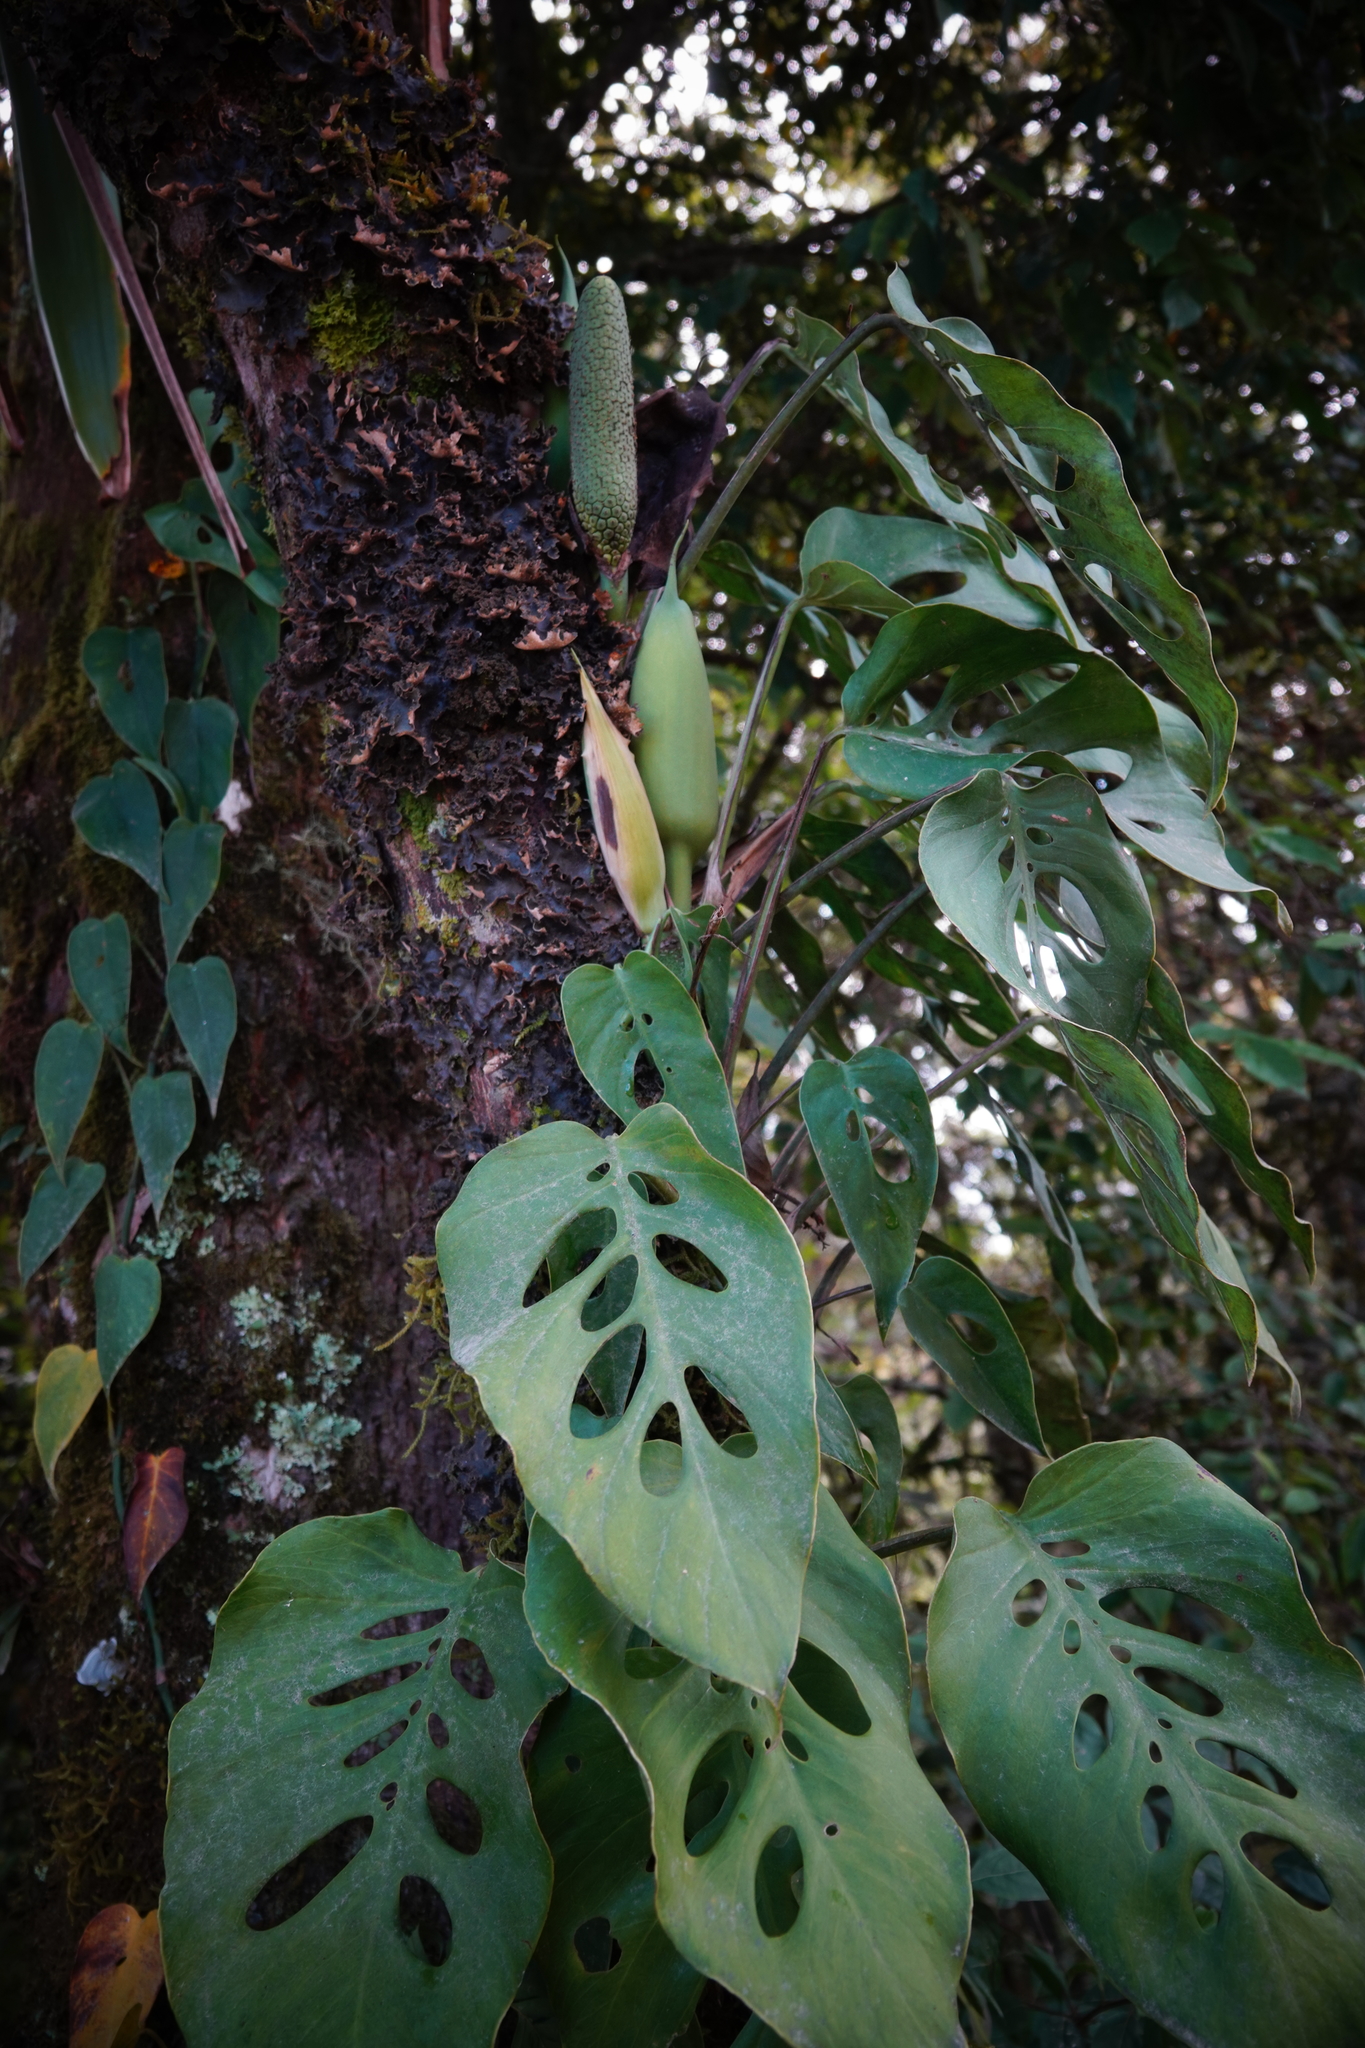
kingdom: Plantae
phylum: Tracheophyta
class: Liliopsida
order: Alismatales
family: Araceae
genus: Monstera
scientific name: Monstera siltepecana
